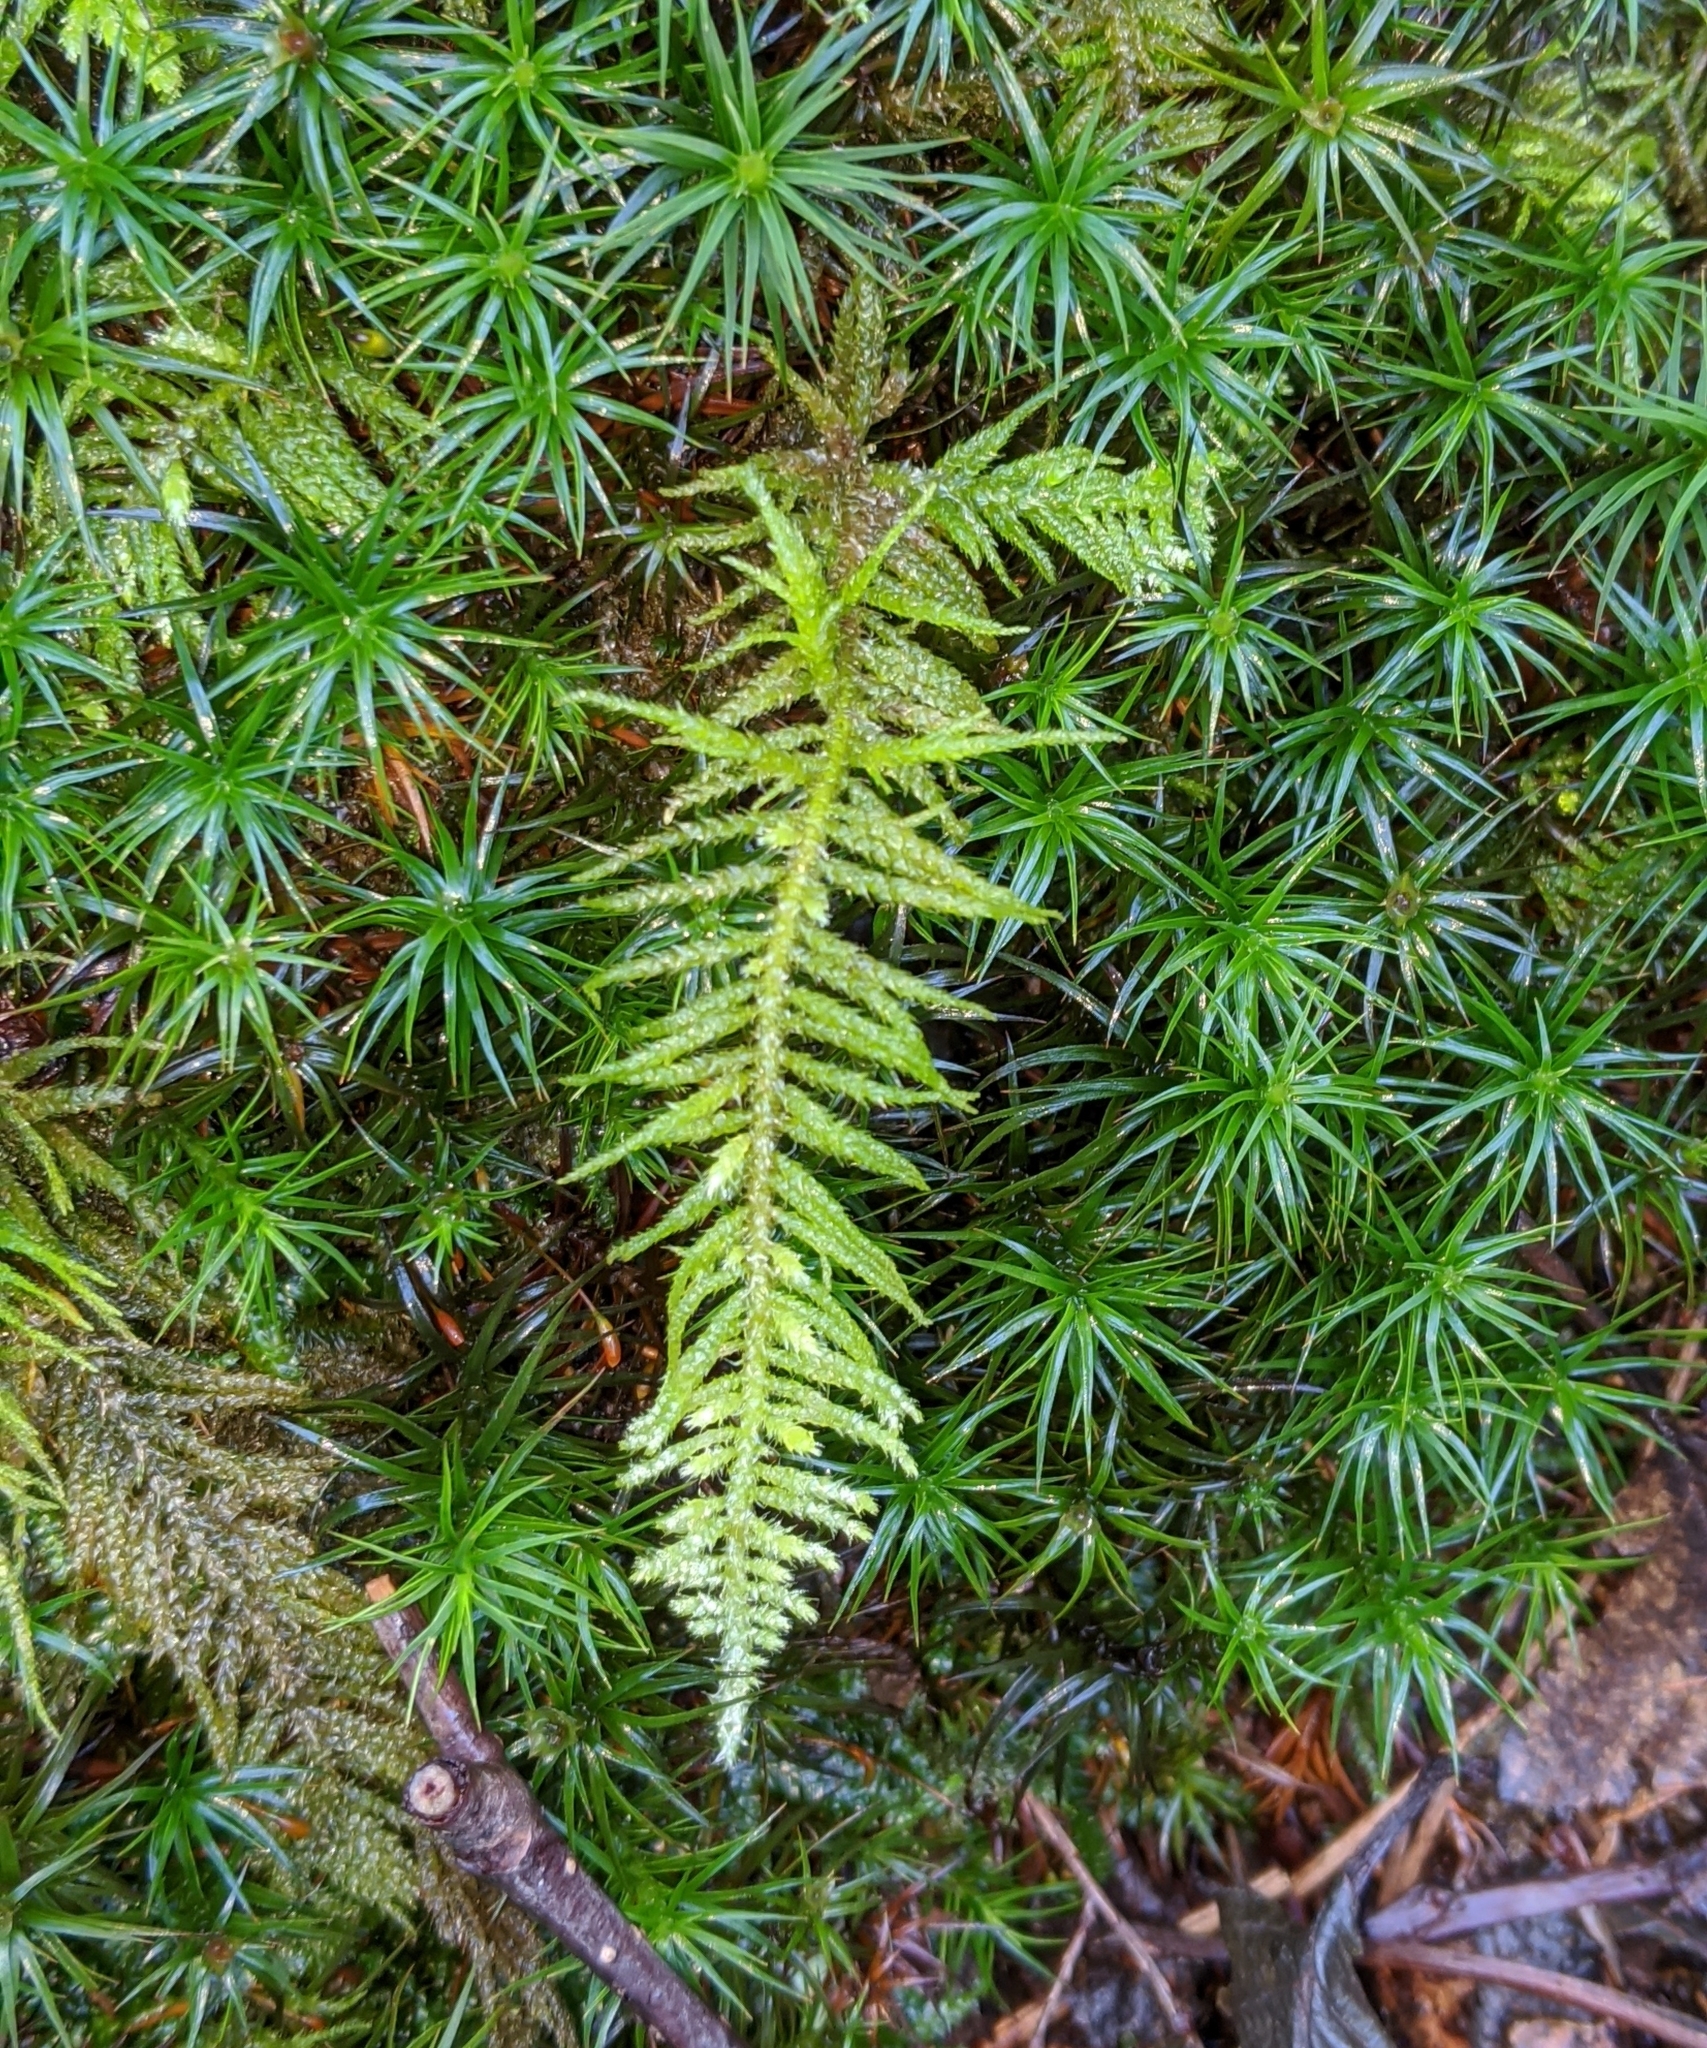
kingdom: Plantae
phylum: Bryophyta
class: Bryopsida
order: Hypnales
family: Brachytheciaceae
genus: Kindbergia
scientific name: Kindbergia oregana
